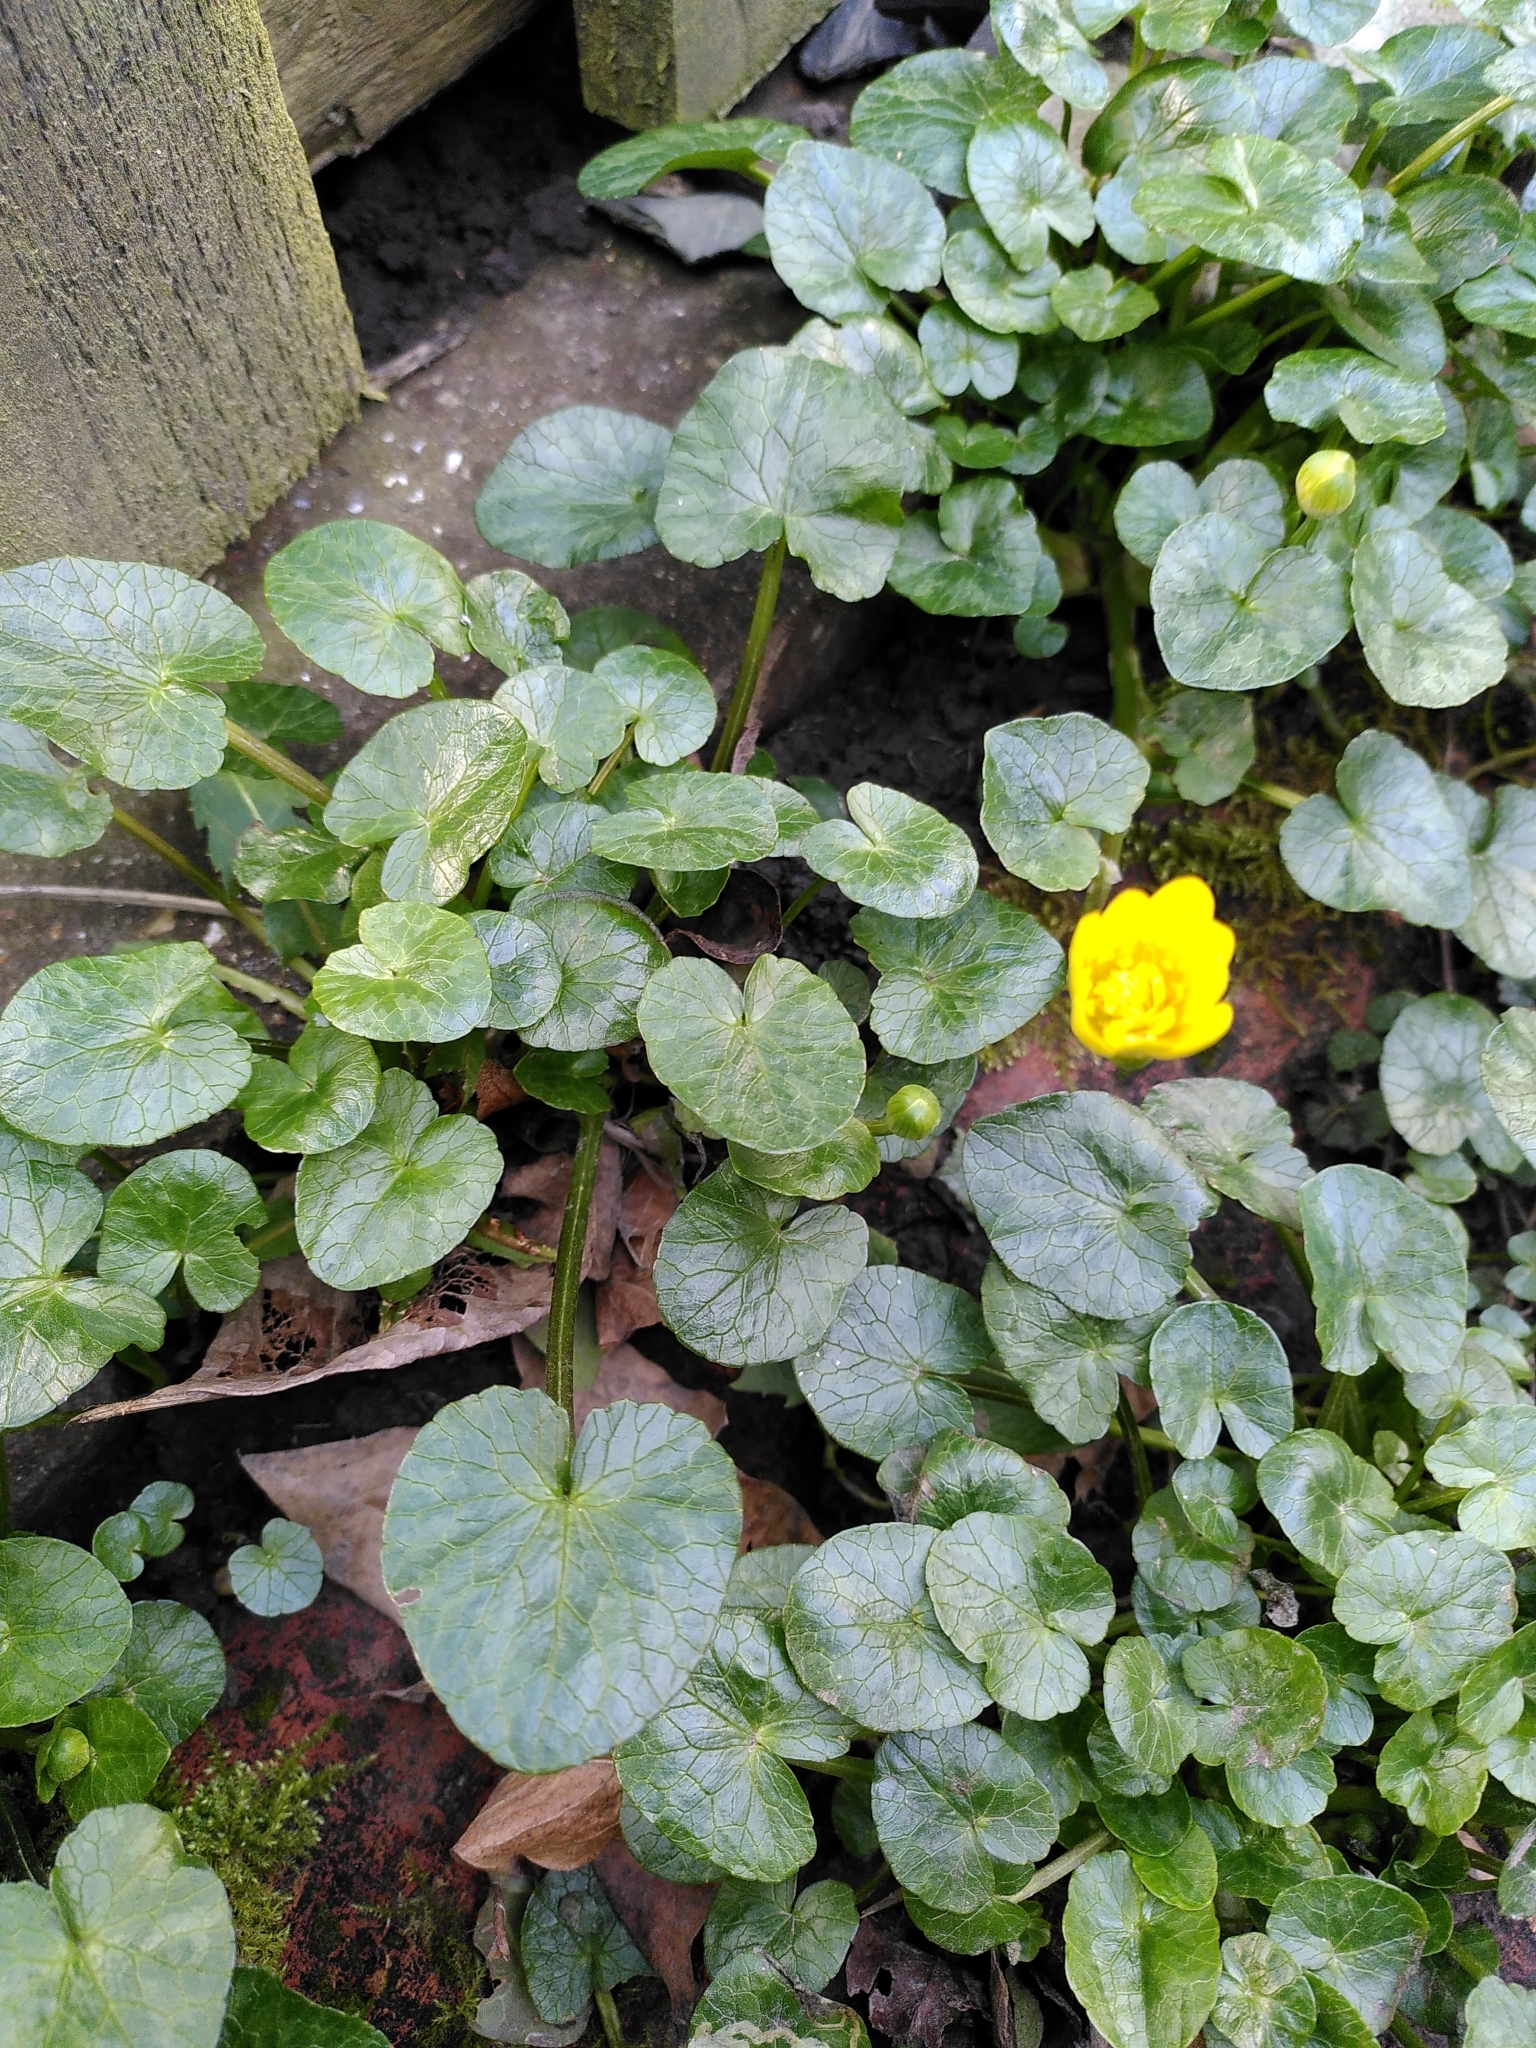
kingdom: Plantae
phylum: Tracheophyta
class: Magnoliopsida
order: Ranunculales
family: Ranunculaceae
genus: Ficaria
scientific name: Ficaria verna
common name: Lesser celandine
